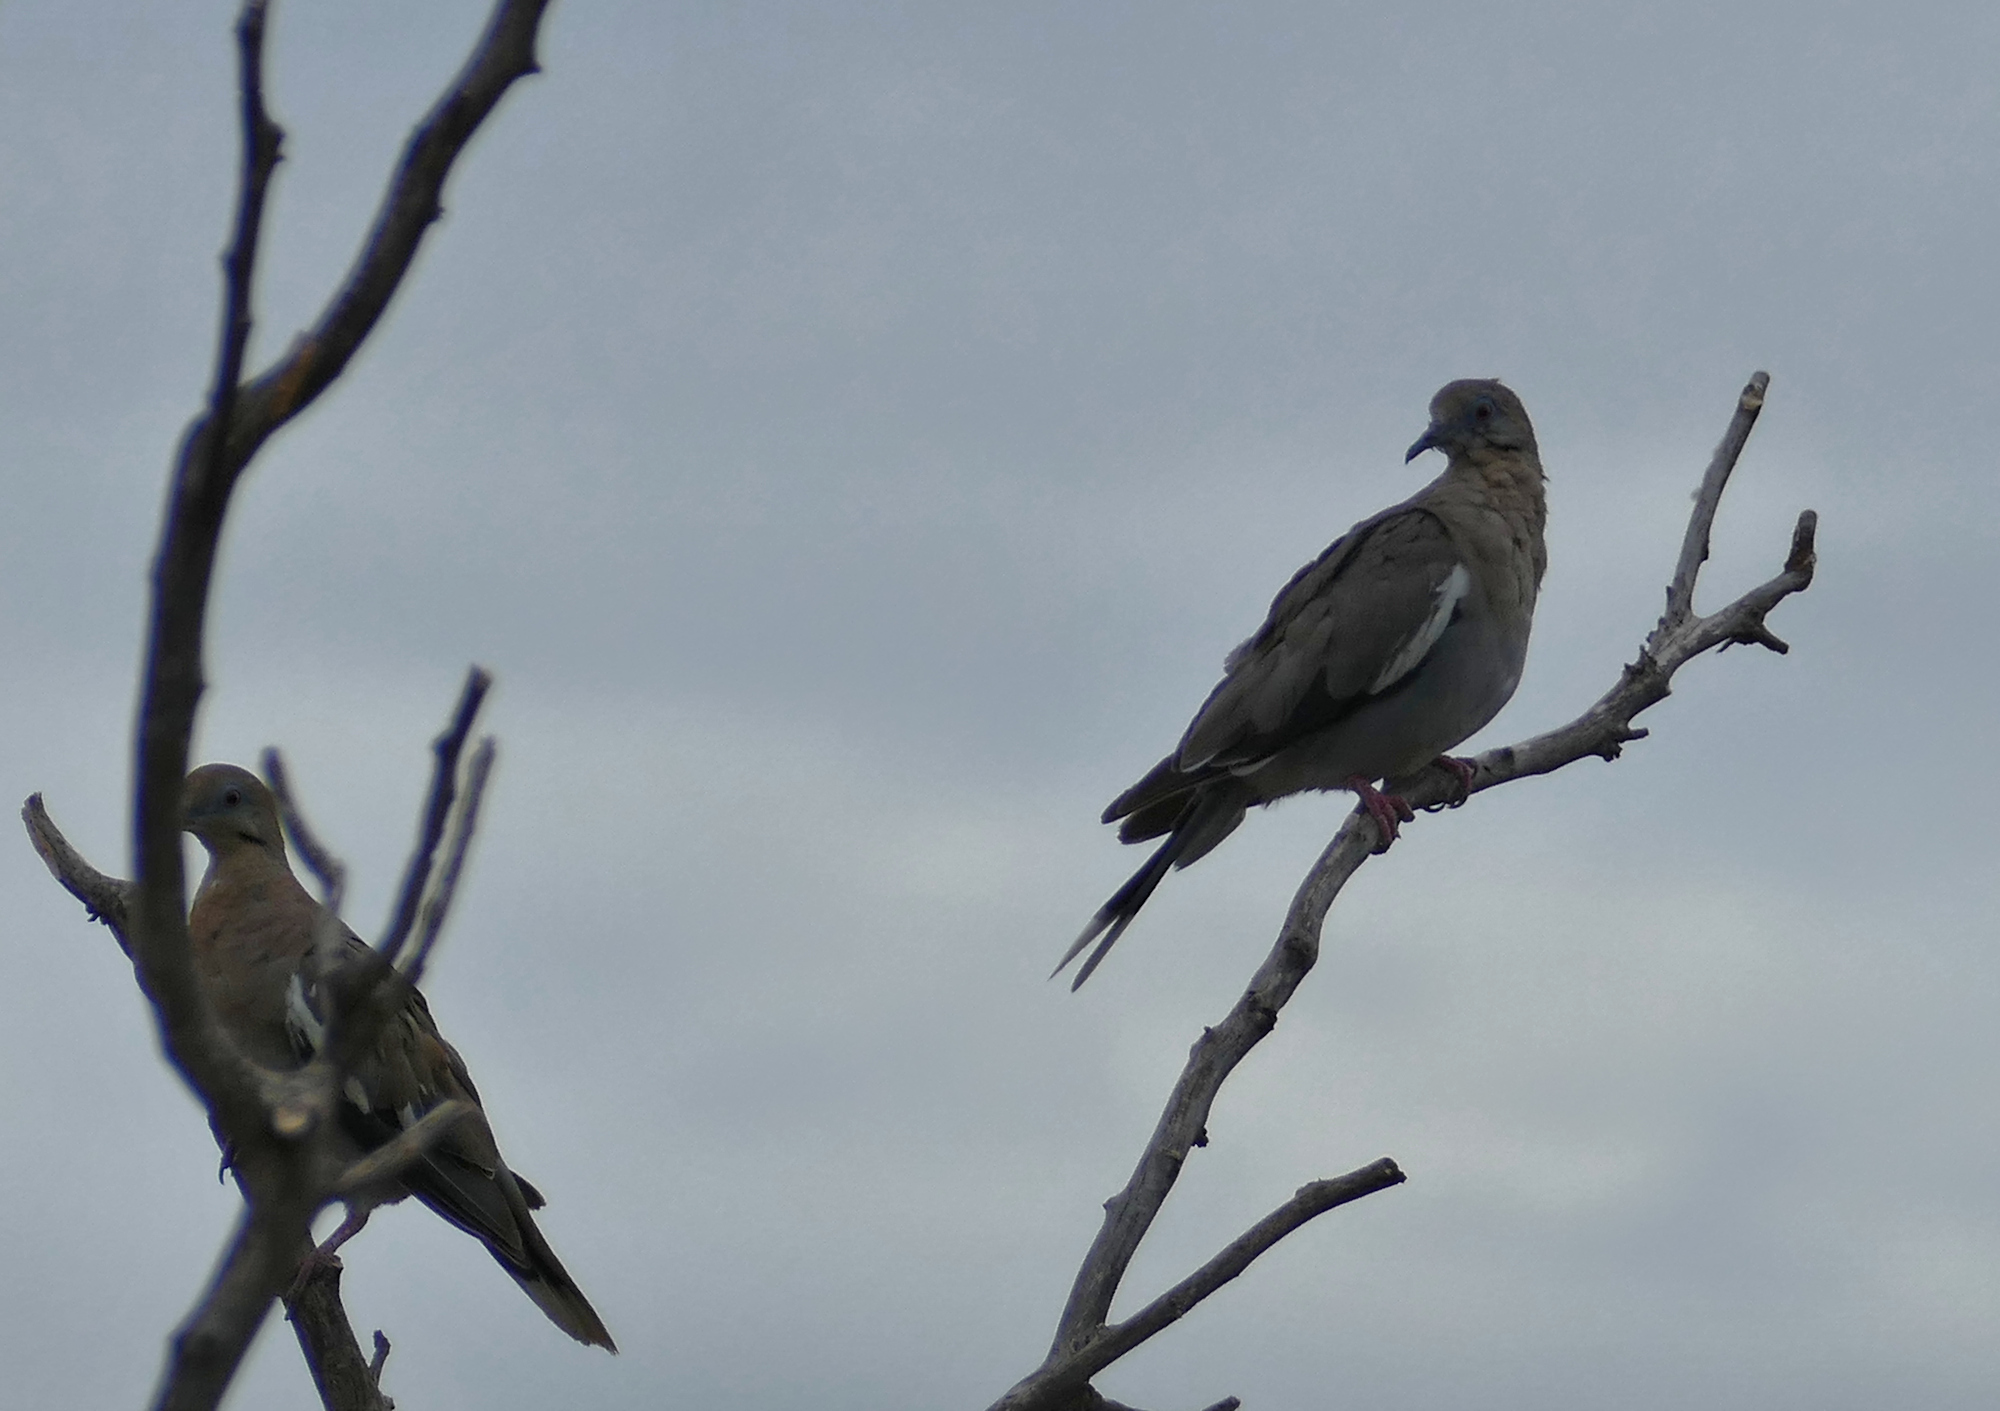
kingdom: Animalia
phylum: Chordata
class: Aves
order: Columbiformes
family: Columbidae
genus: Zenaida
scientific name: Zenaida asiatica
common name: White-winged dove
